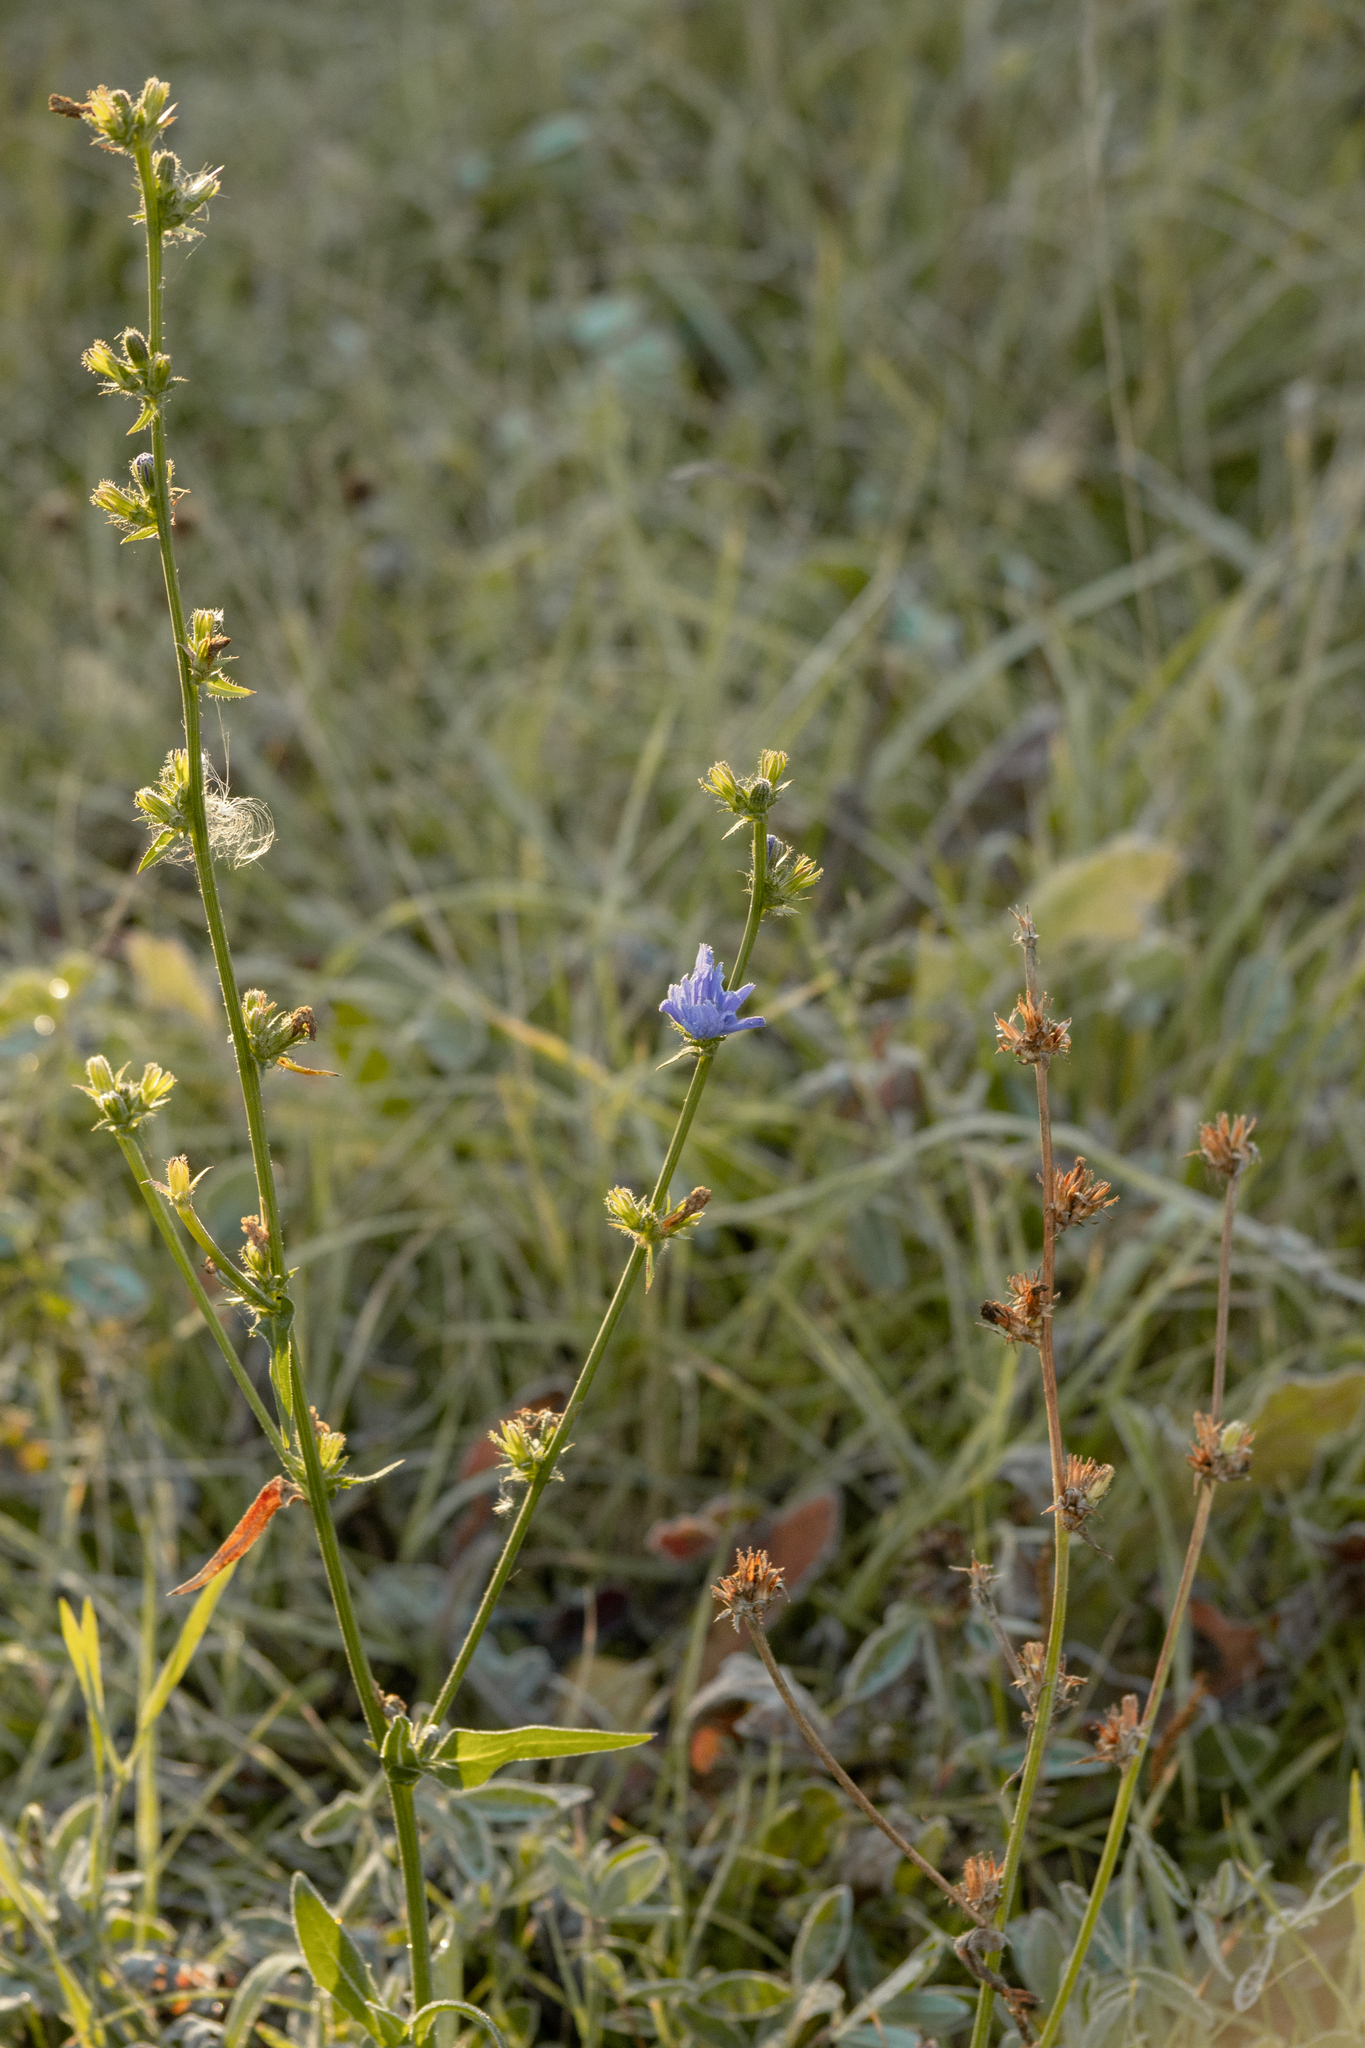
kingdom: Plantae
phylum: Tracheophyta
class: Magnoliopsida
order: Asterales
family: Asteraceae
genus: Cichorium
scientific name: Cichorium intybus
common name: Chicory
